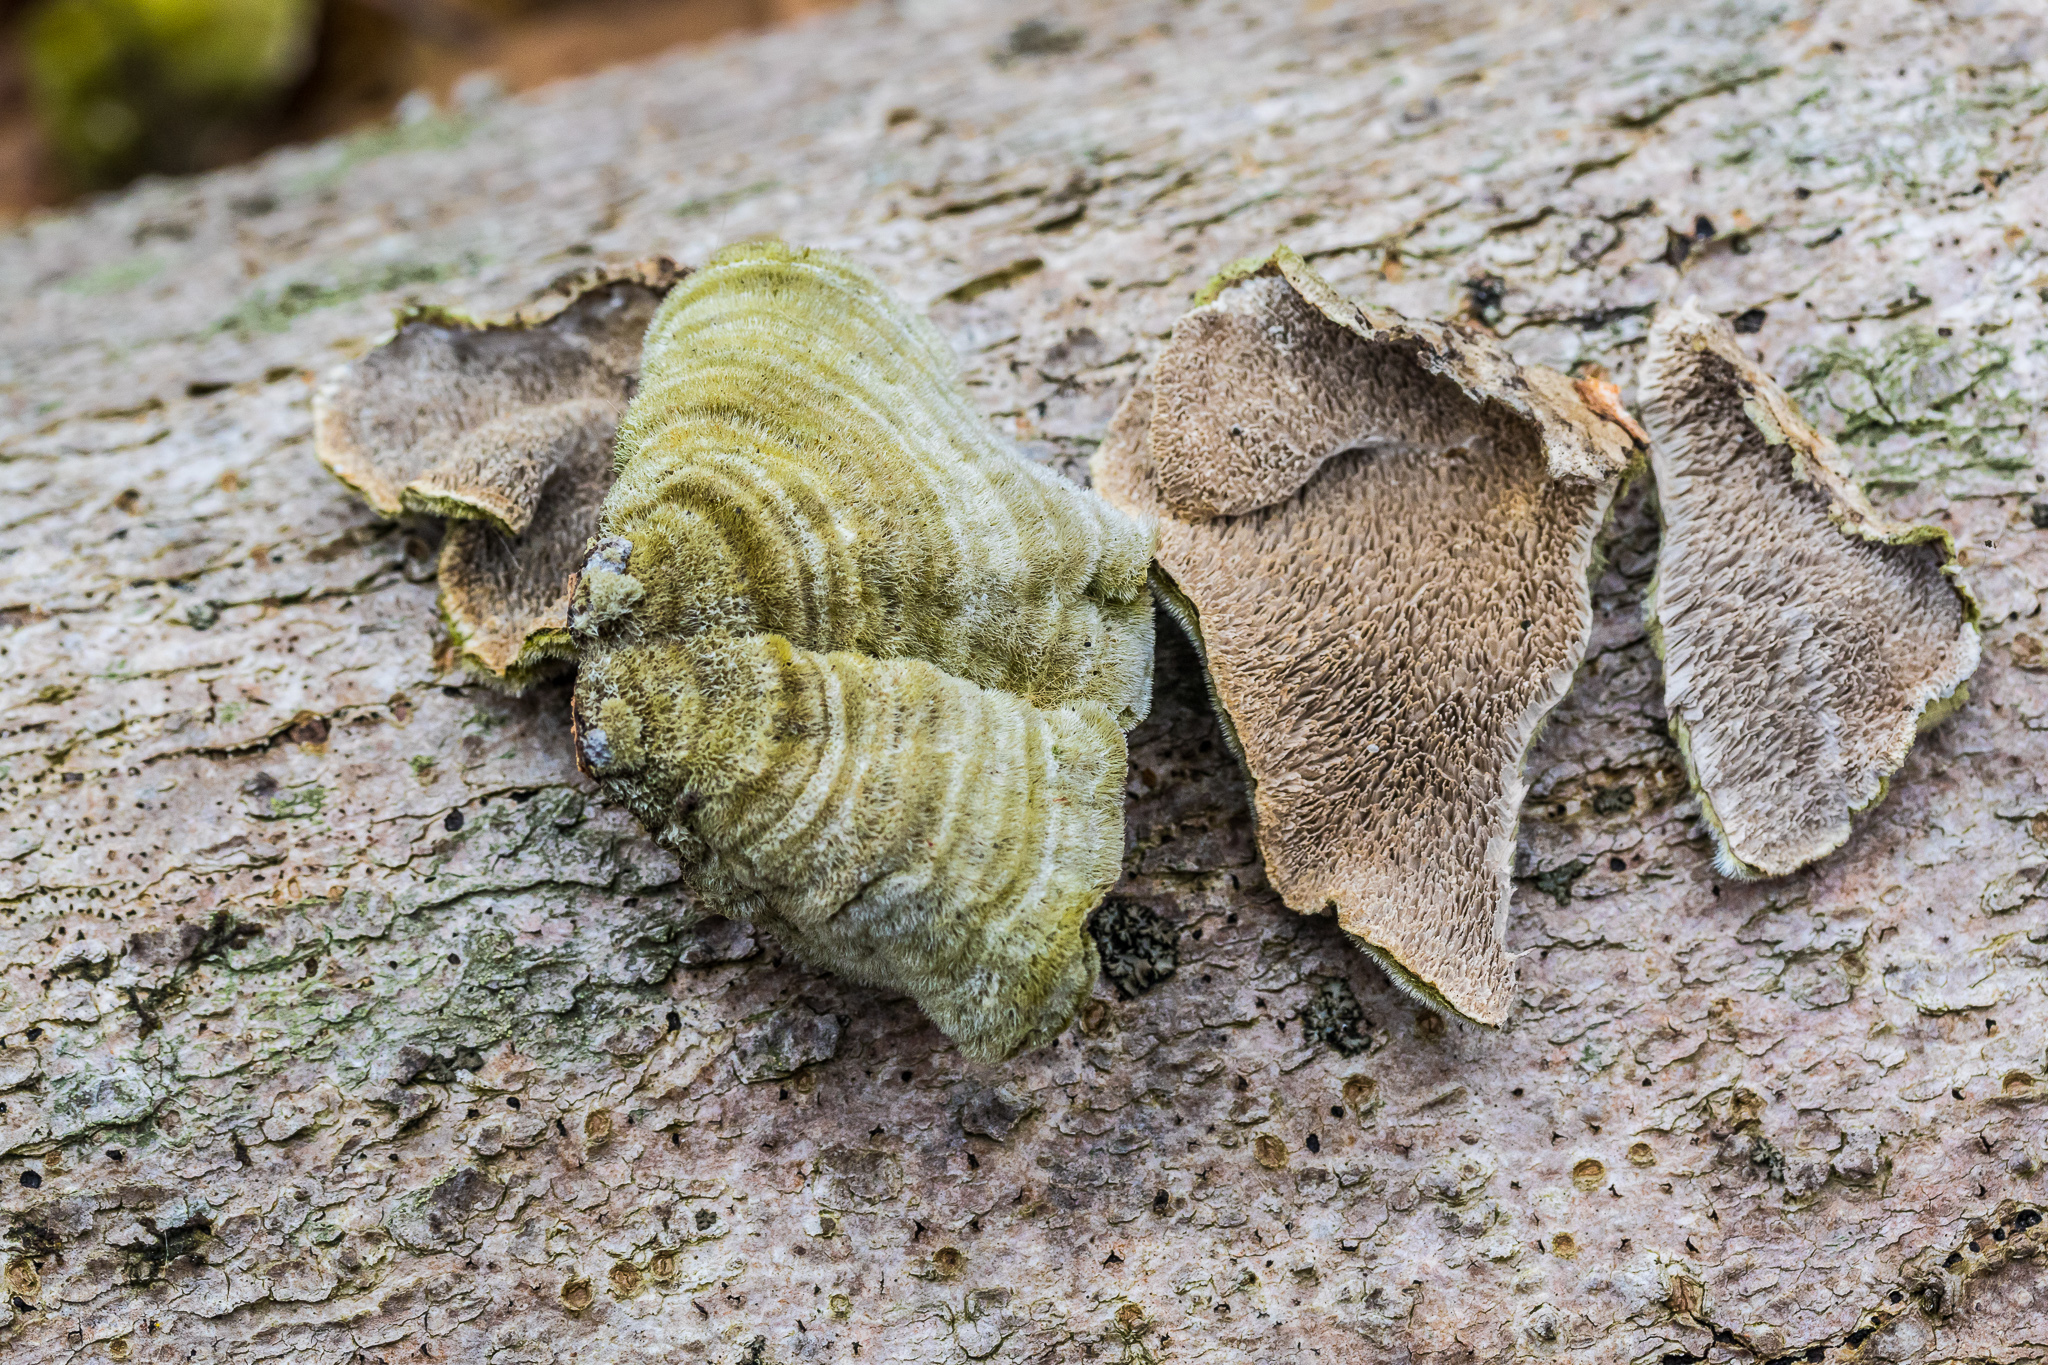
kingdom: Fungi
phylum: Basidiomycota
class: Agaricomycetes
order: Polyporales
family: Cerrenaceae
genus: Cerrena
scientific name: Cerrena unicolor
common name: Mossy maze polypore
